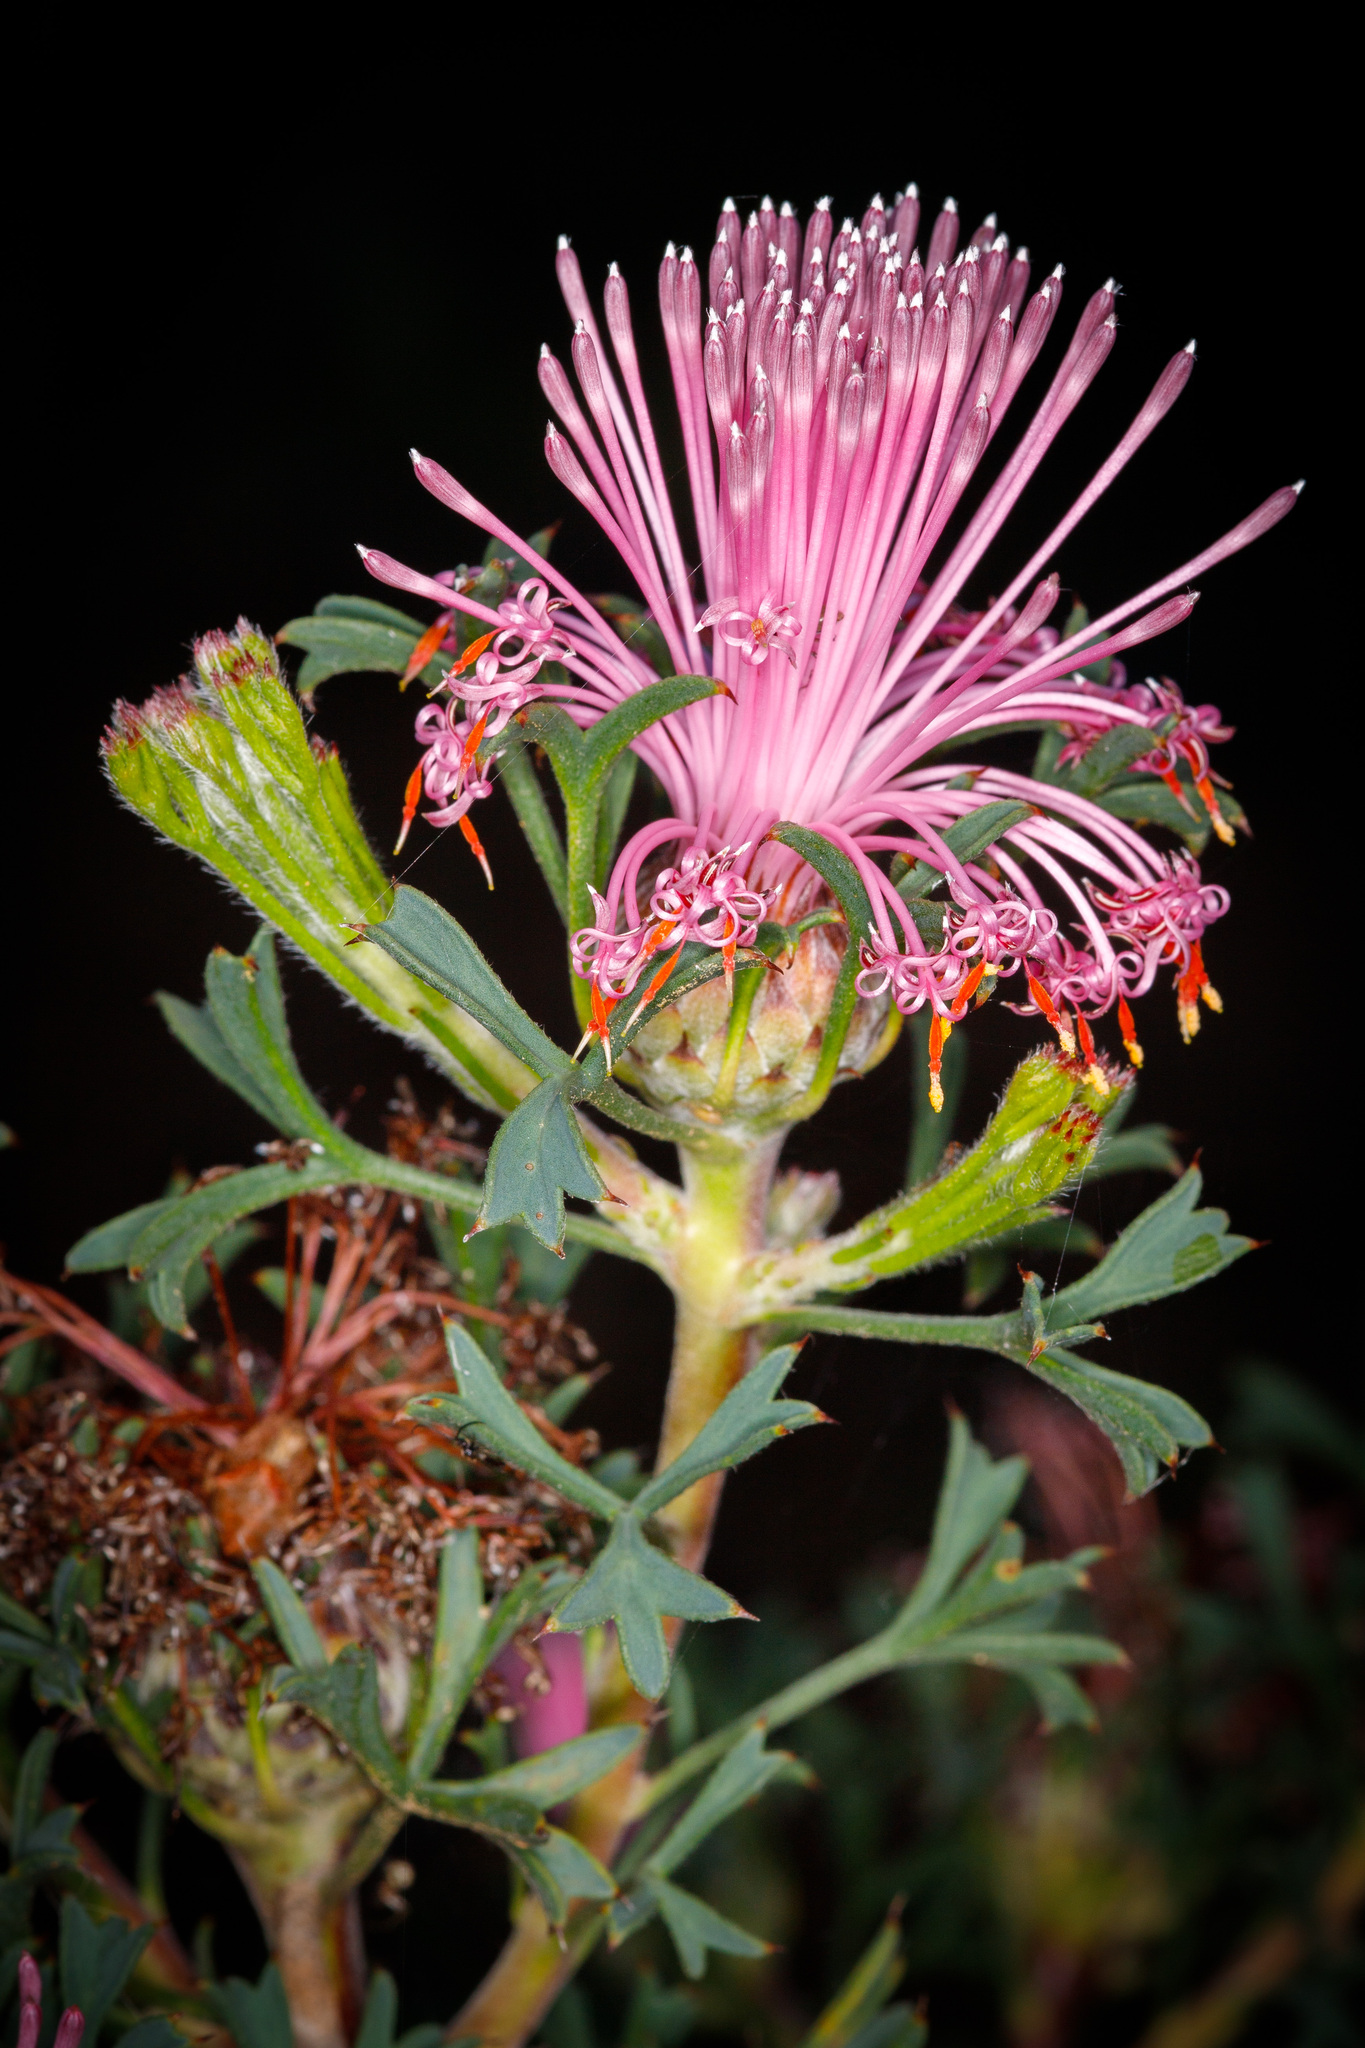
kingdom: Plantae
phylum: Tracheophyta
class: Magnoliopsida
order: Proteales
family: Proteaceae
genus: Isopogon
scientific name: Isopogon dubius
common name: Pincushion-coneflower
